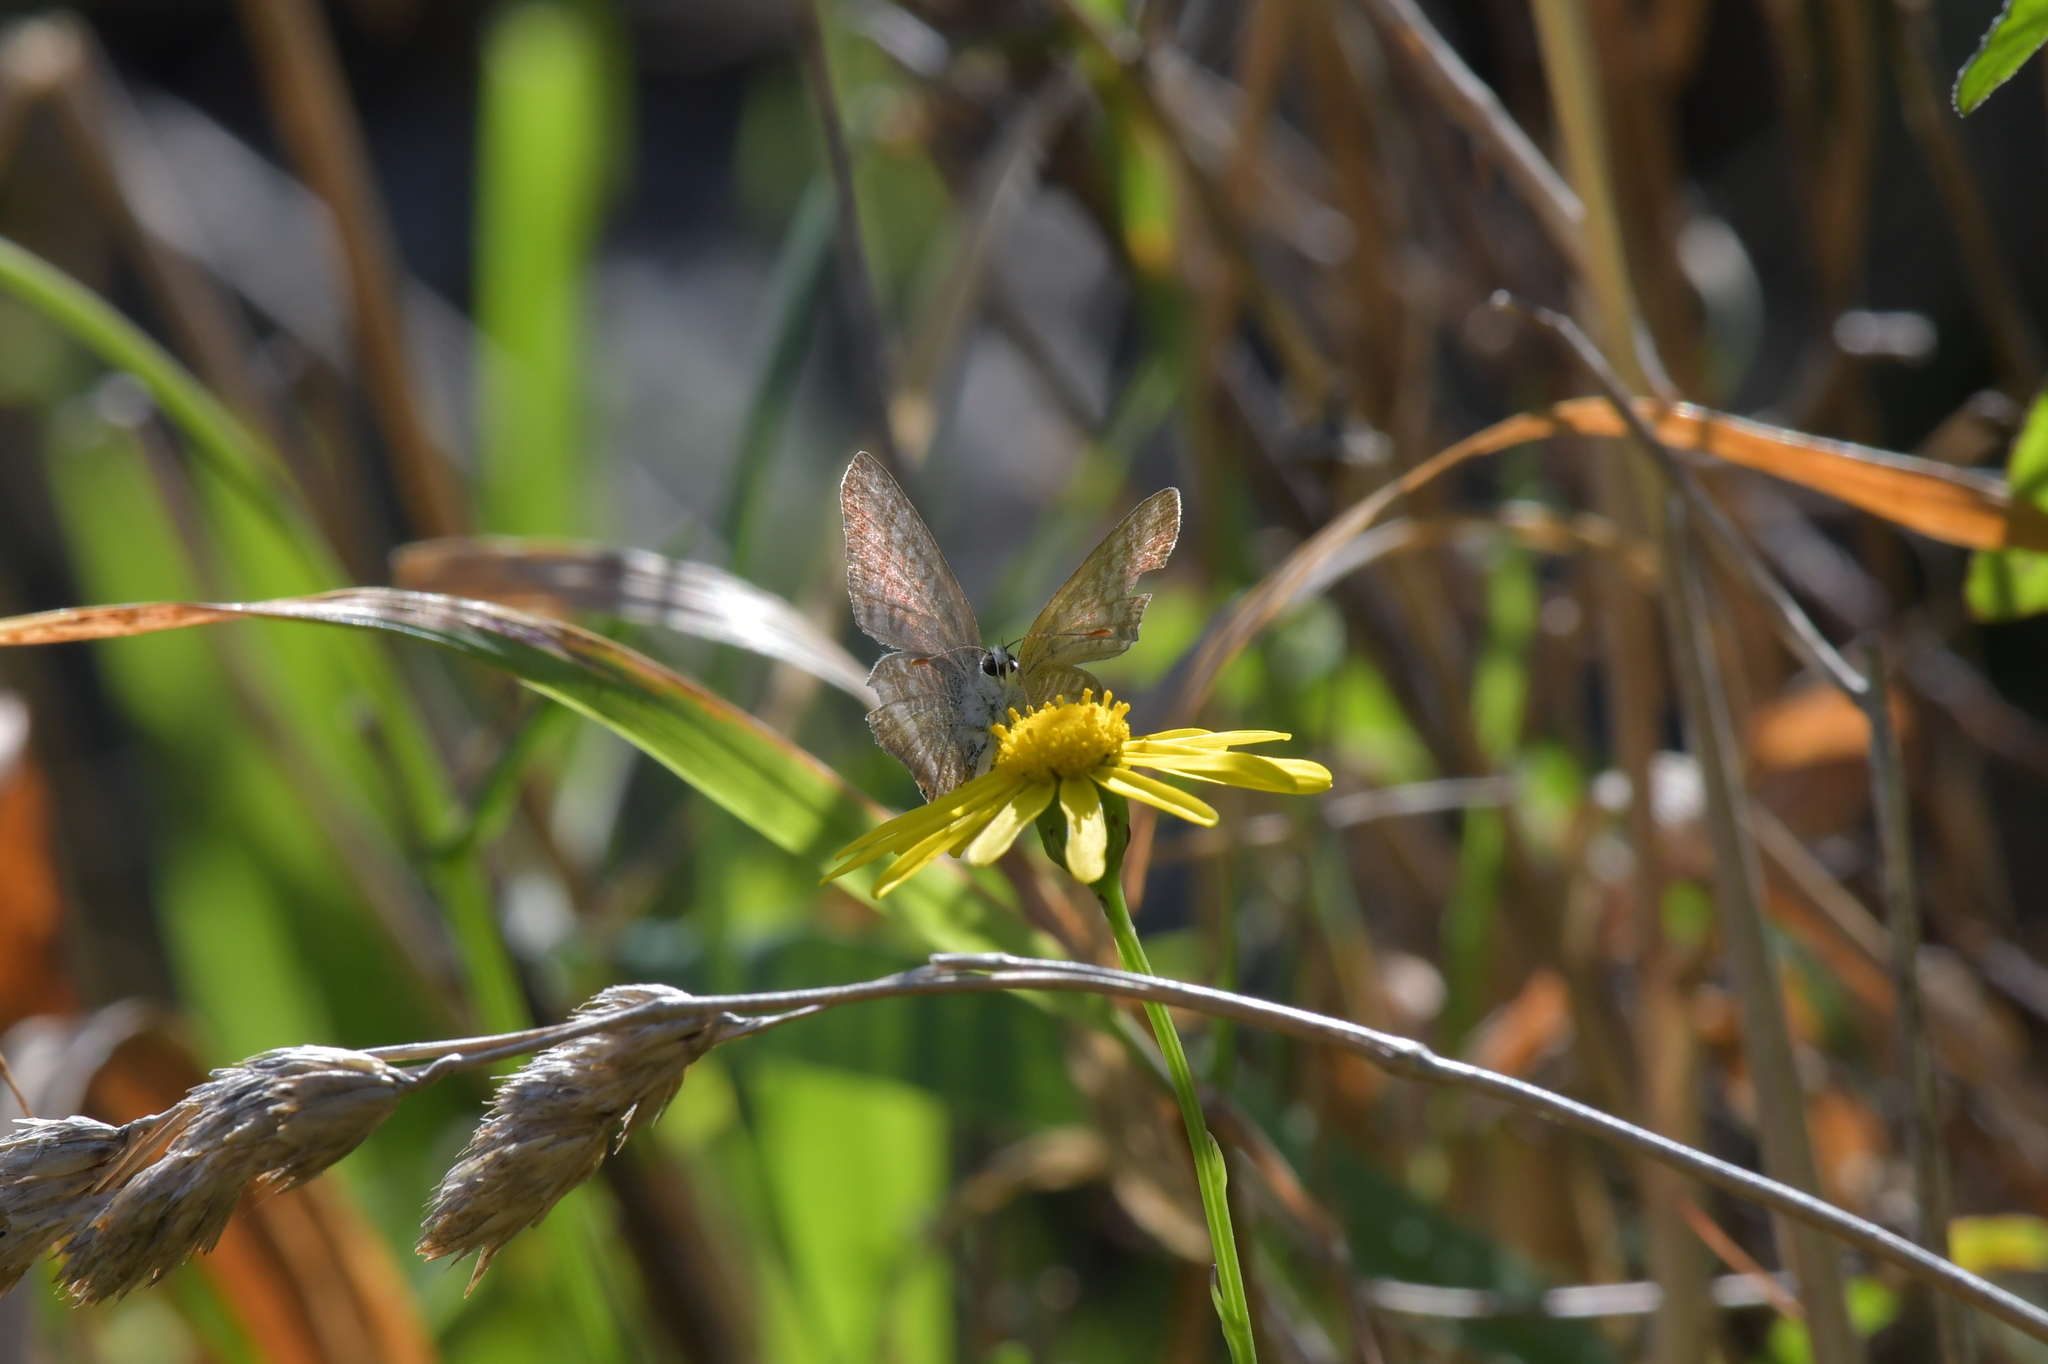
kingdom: Animalia
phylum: Arthropoda
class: Insecta
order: Lepidoptera
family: Lycaenidae
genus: Lampides
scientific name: Lampides boeticus
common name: Long-tailed blue
